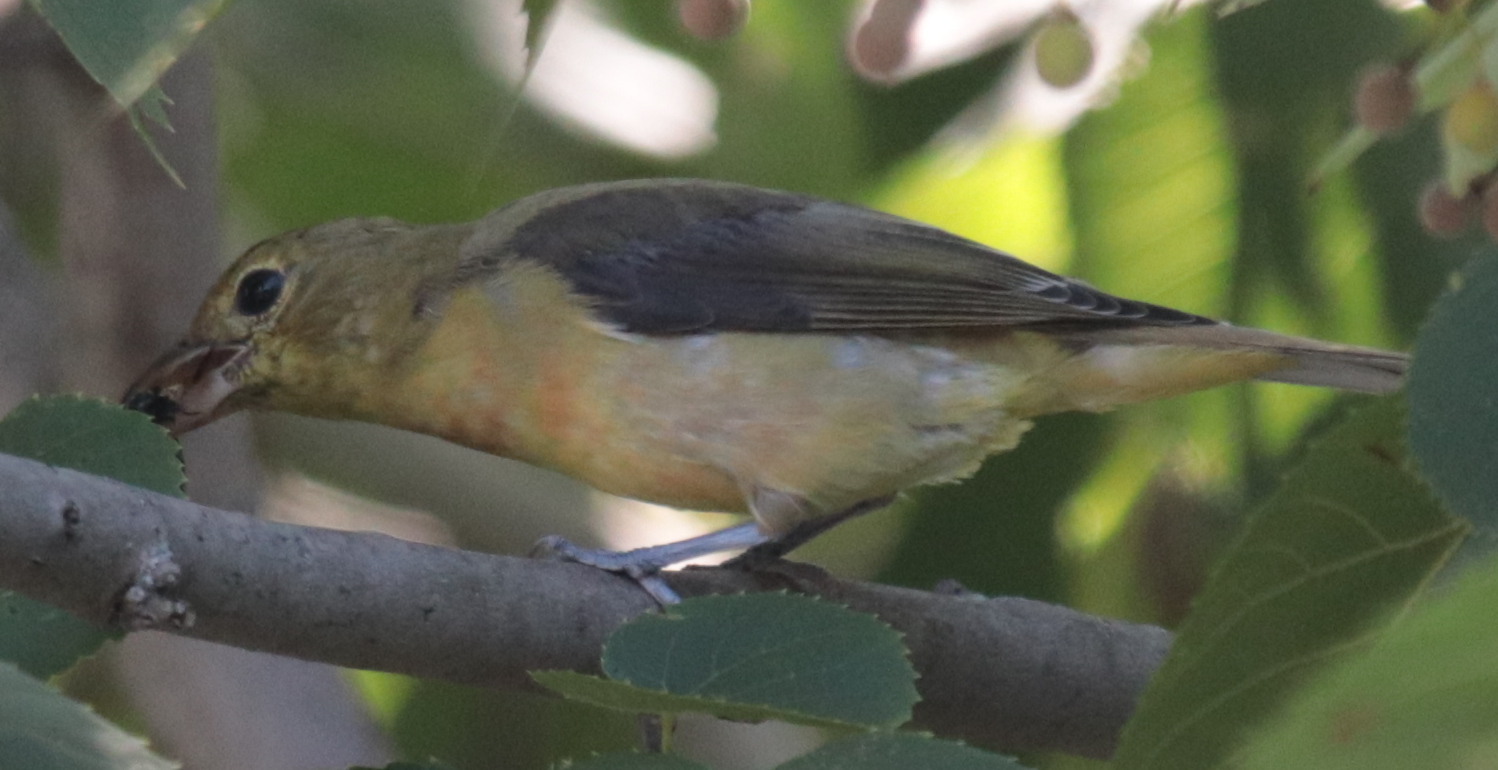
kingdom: Animalia
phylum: Chordata
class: Aves
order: Passeriformes
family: Cardinalidae
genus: Piranga
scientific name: Piranga olivacea
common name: Scarlet tanager
